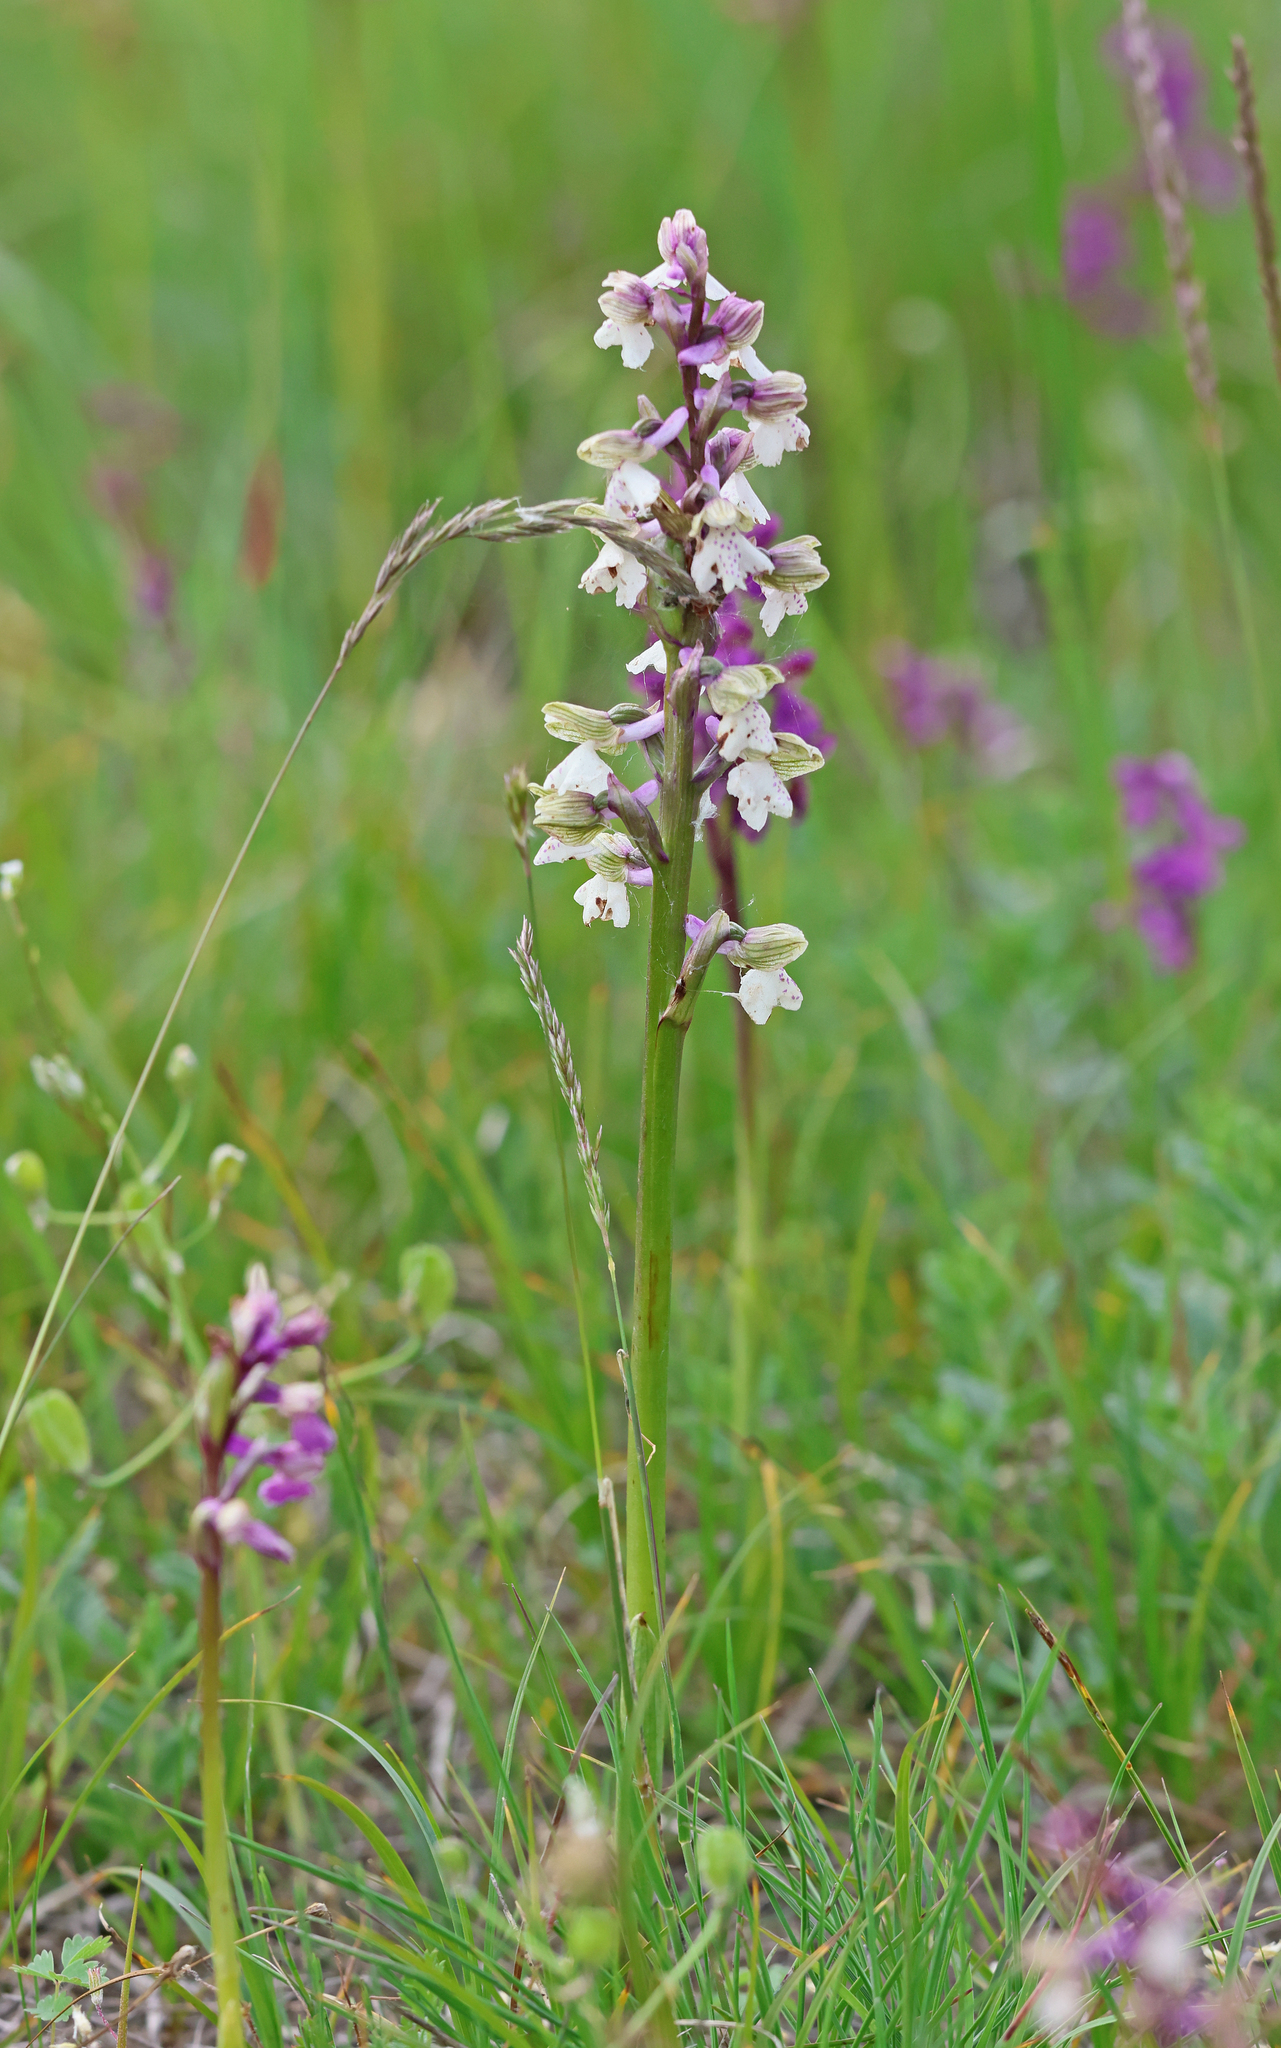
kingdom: Plantae
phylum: Tracheophyta
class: Liliopsida
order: Asparagales
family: Orchidaceae
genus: Anacamptis
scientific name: Anacamptis morio
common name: Green-winged orchid
